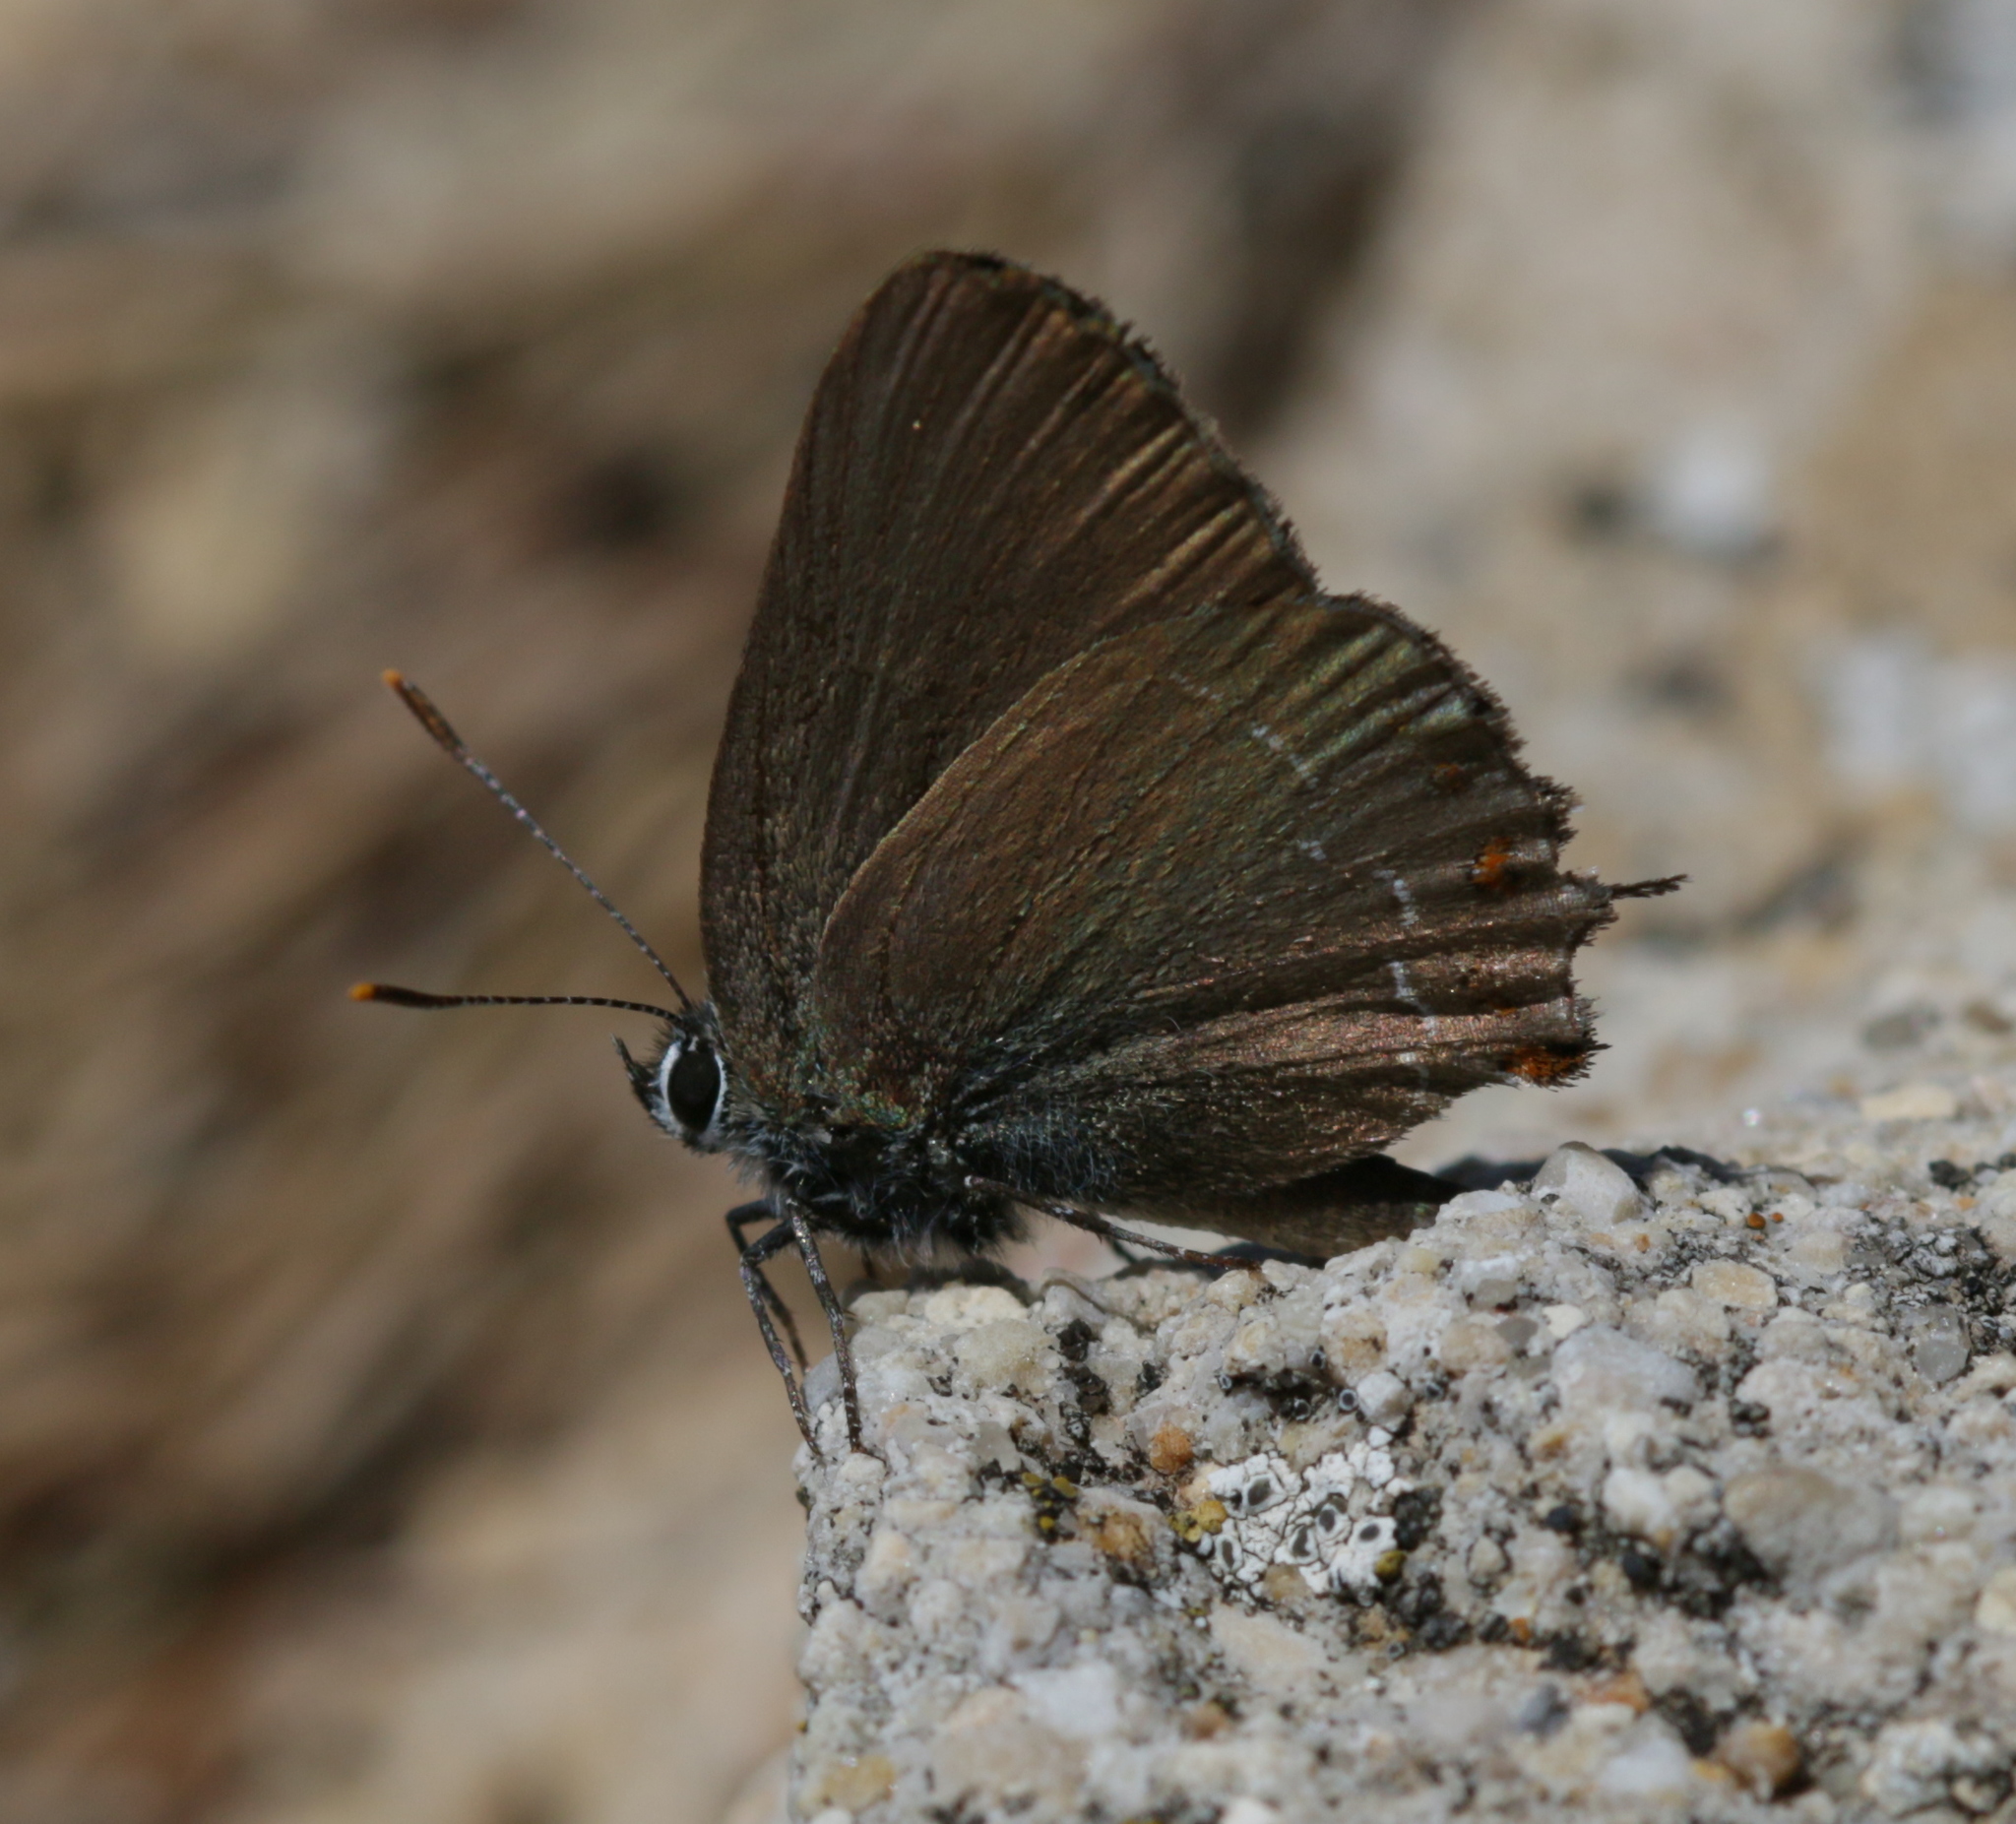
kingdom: Animalia
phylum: Arthropoda
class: Insecta
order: Lepidoptera
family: Lycaenidae
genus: Fixsenia
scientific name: Fixsenia esculi
